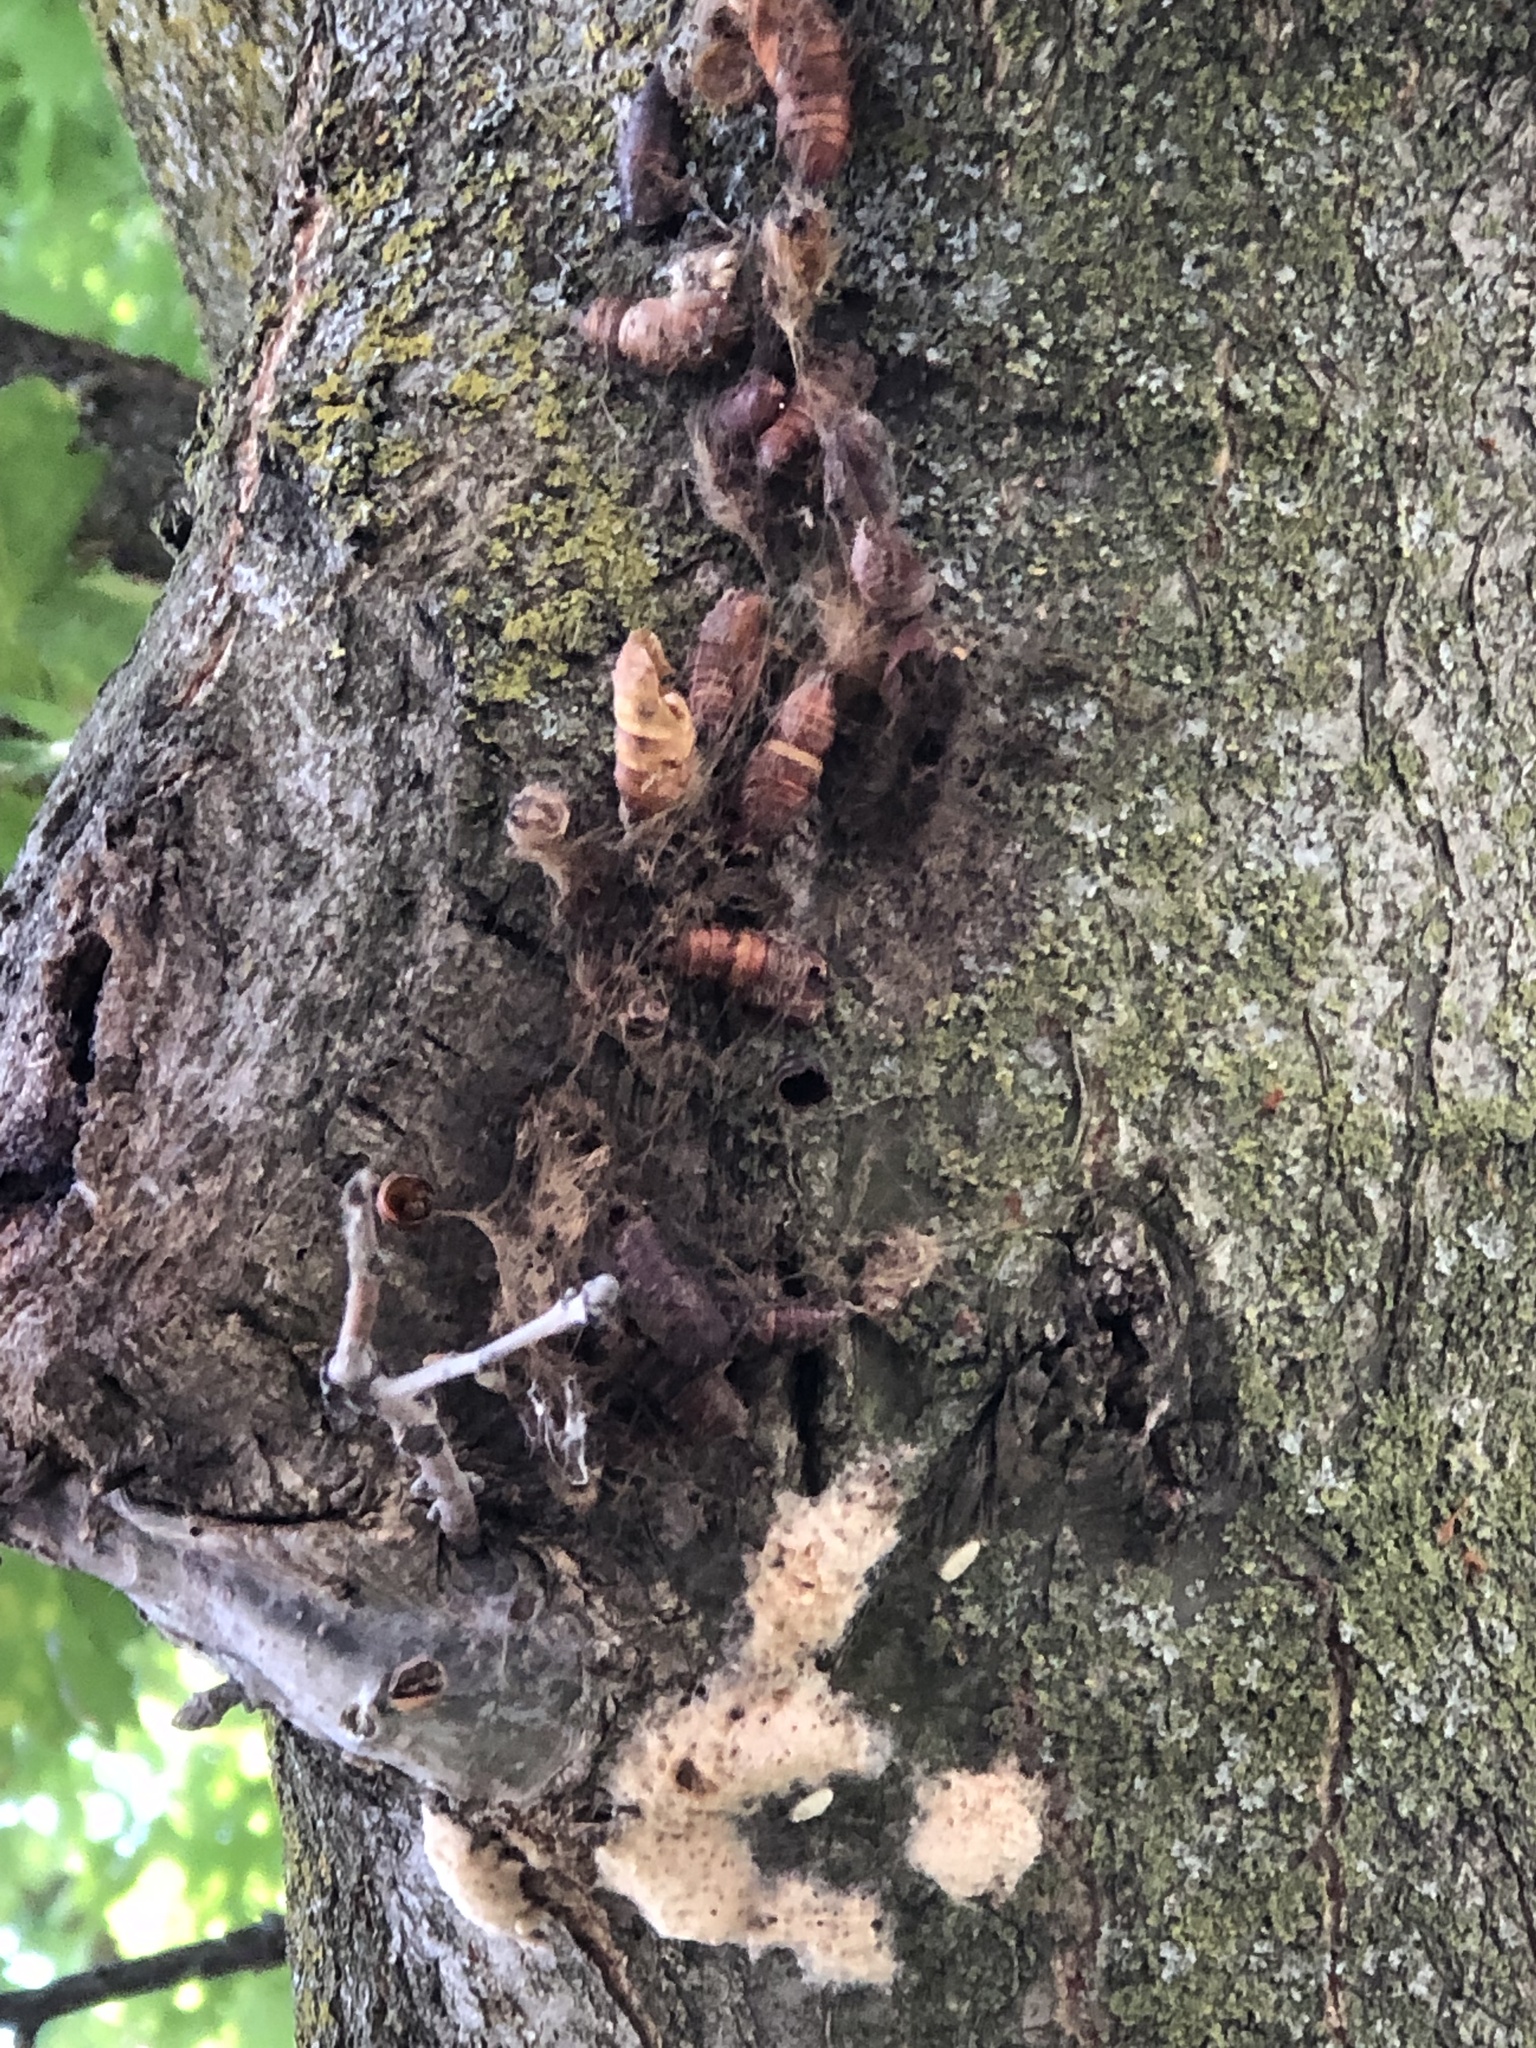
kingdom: Animalia
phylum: Arthropoda
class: Insecta
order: Lepidoptera
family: Erebidae
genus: Lymantria
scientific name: Lymantria dispar
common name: Gypsy moth
